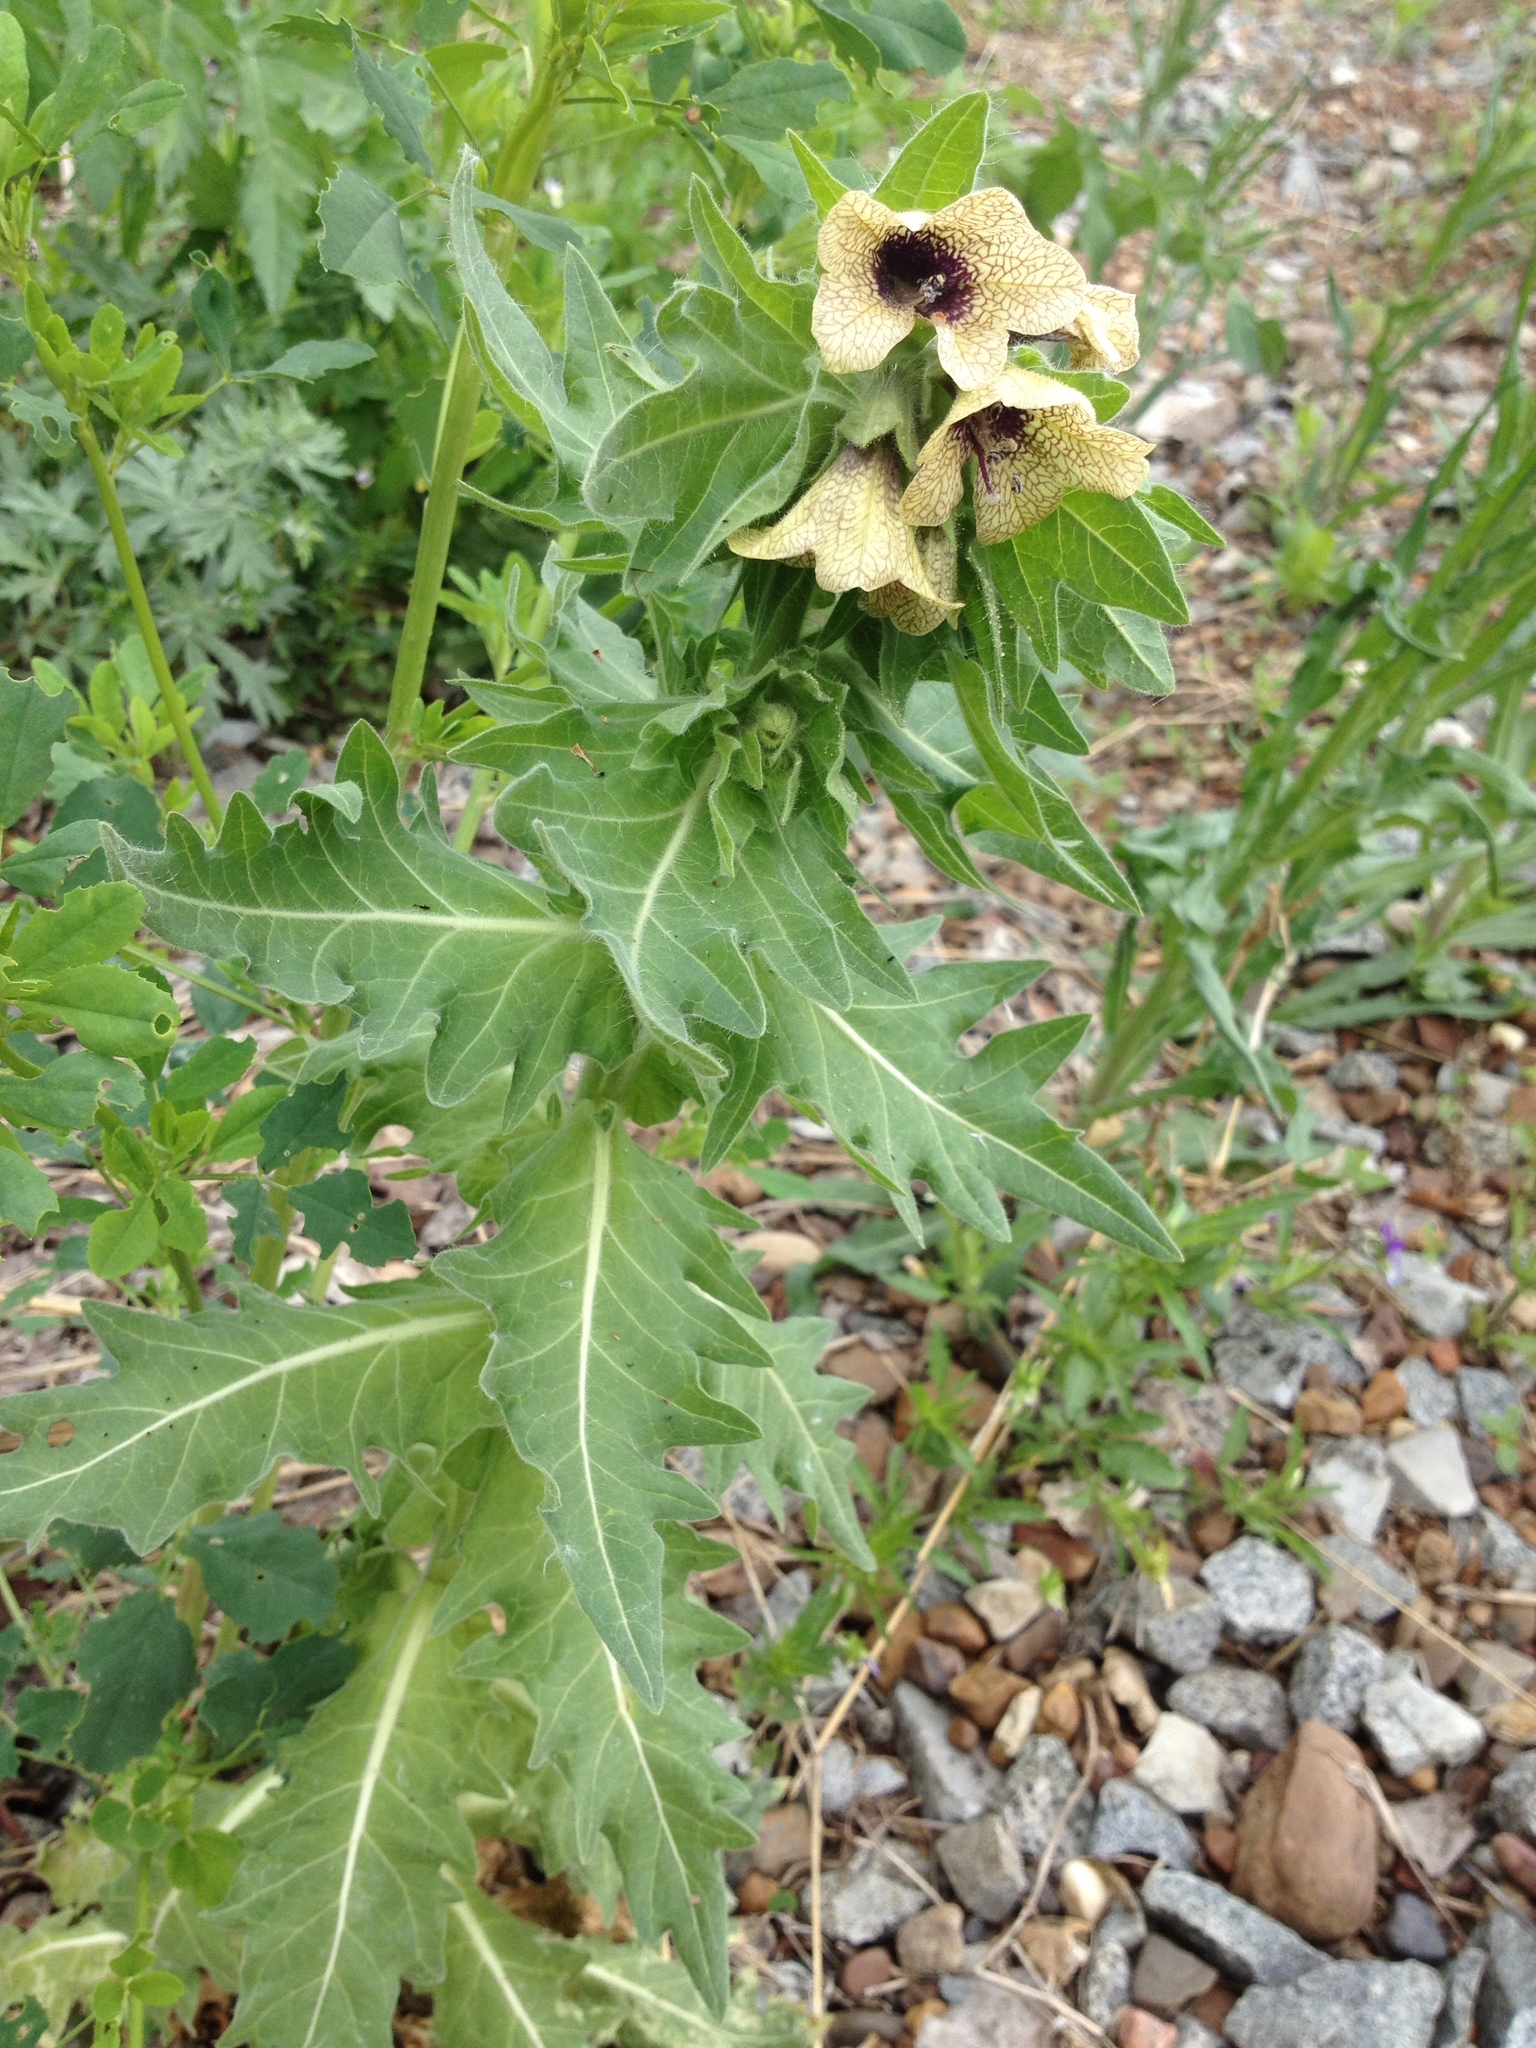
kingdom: Plantae
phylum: Tracheophyta
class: Magnoliopsida
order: Solanales
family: Solanaceae
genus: Hyoscyamus
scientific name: Hyoscyamus niger
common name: Henbane
